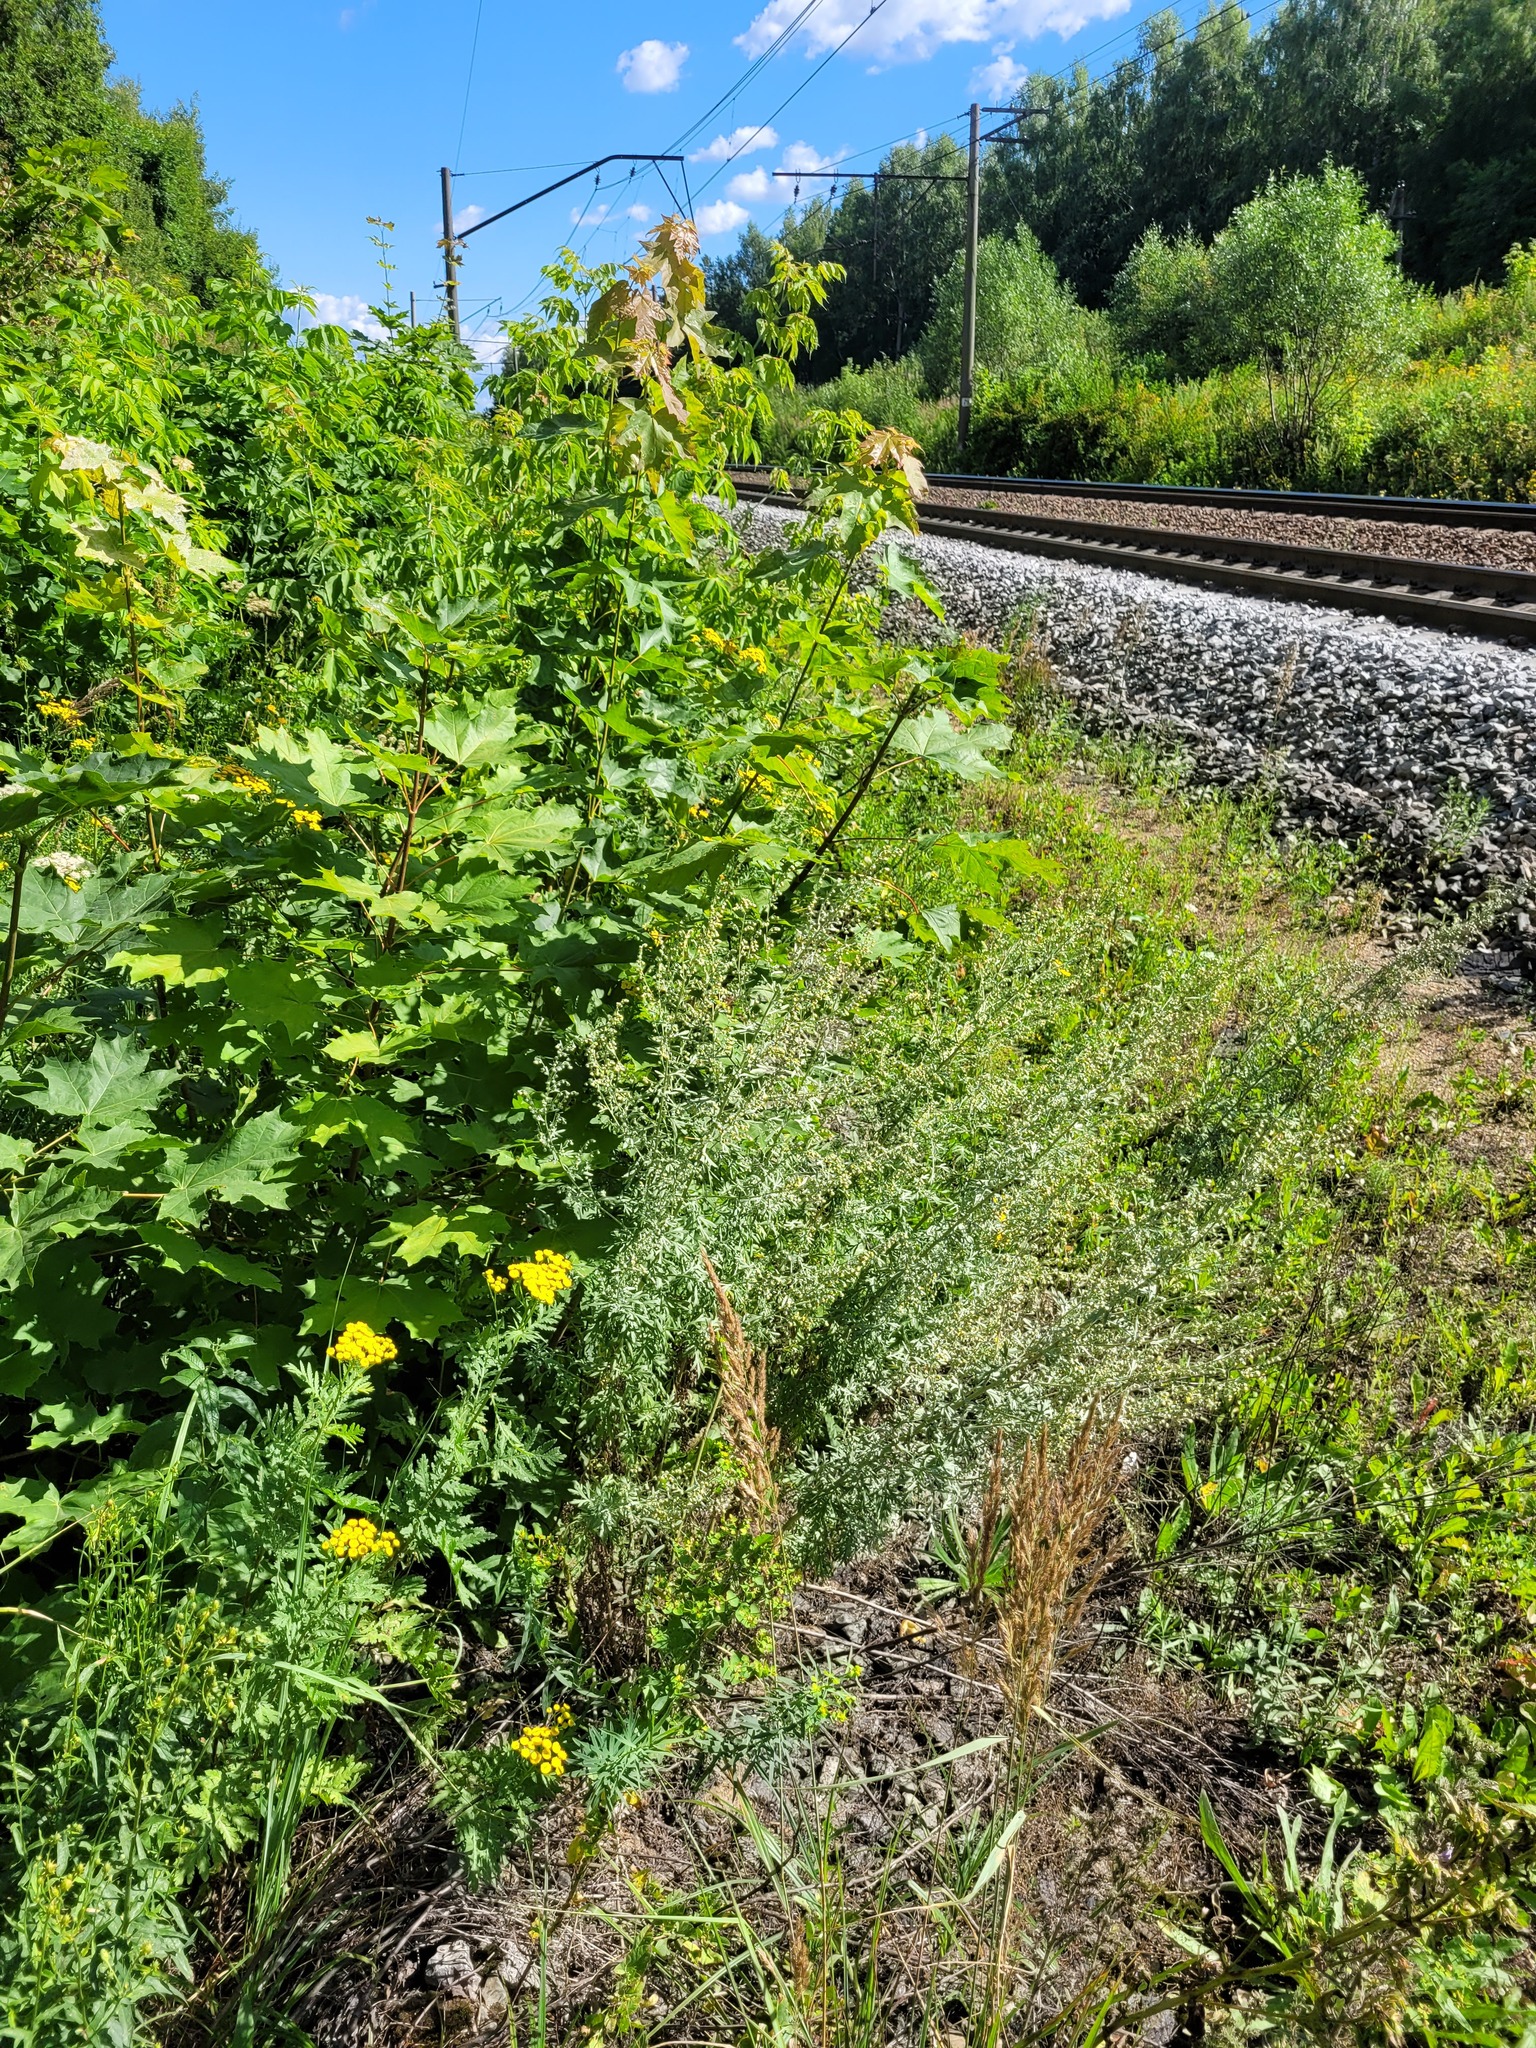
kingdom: Plantae
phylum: Tracheophyta
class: Magnoliopsida
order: Asterales
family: Asteraceae
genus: Artemisia
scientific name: Artemisia absinthium
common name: Wormwood
